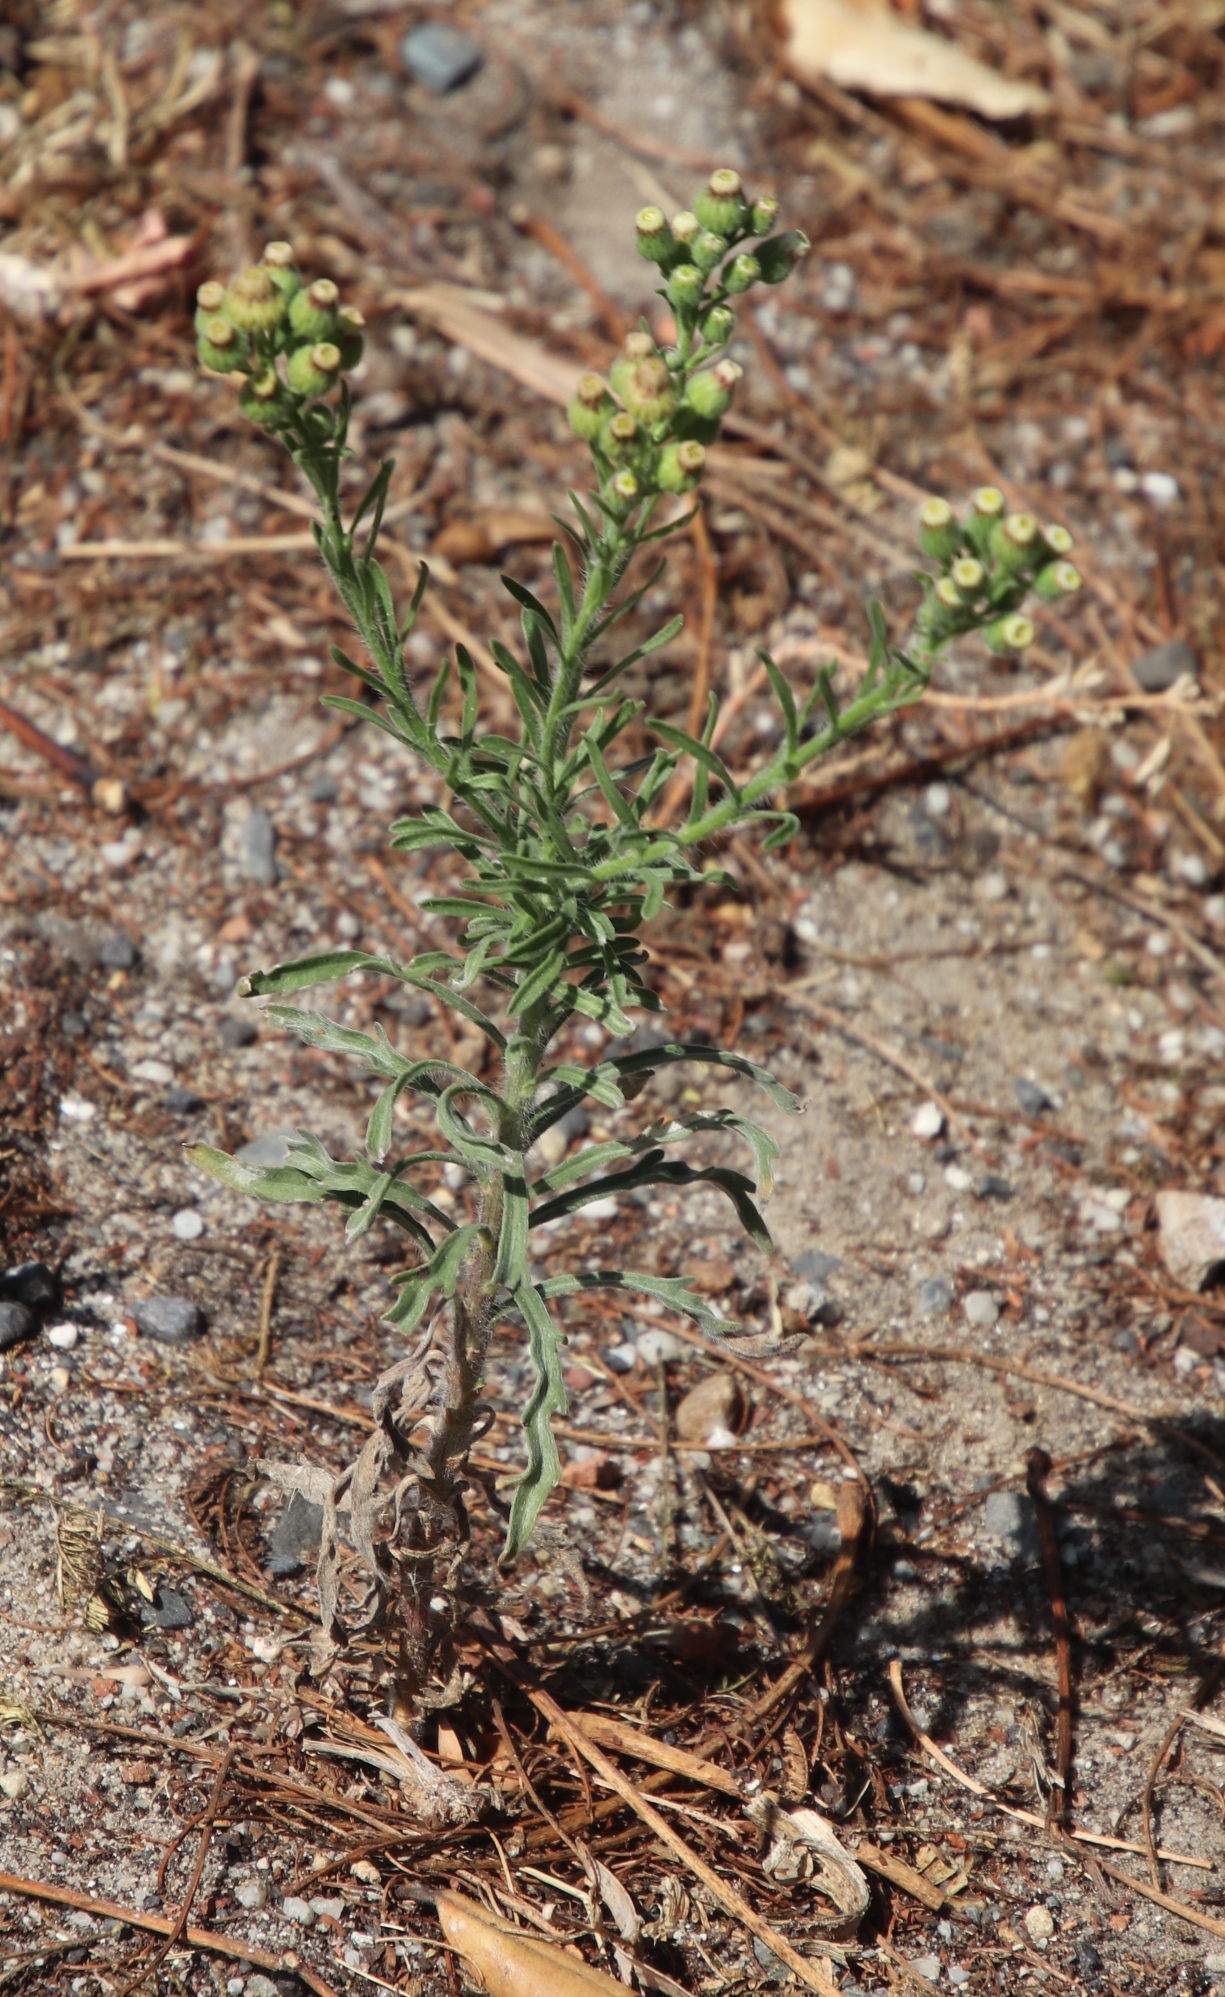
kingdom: Plantae
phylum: Tracheophyta
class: Magnoliopsida
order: Asterales
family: Asteraceae
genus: Erigeron
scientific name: Erigeron bonariensis
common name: Argentine fleabane
